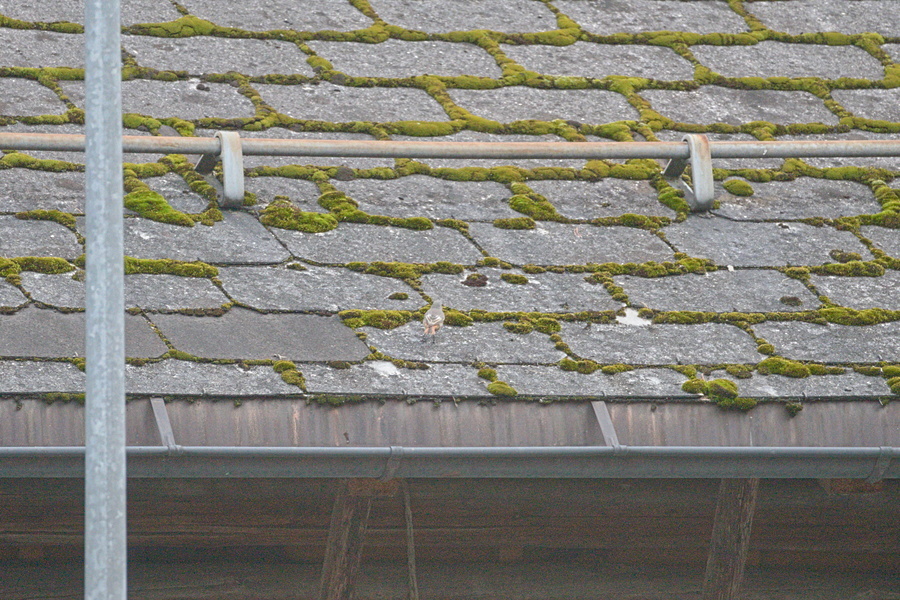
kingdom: Animalia
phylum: Chordata
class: Aves
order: Passeriformes
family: Muscicapidae
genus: Phoenicurus
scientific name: Phoenicurus ochruros
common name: Black redstart
